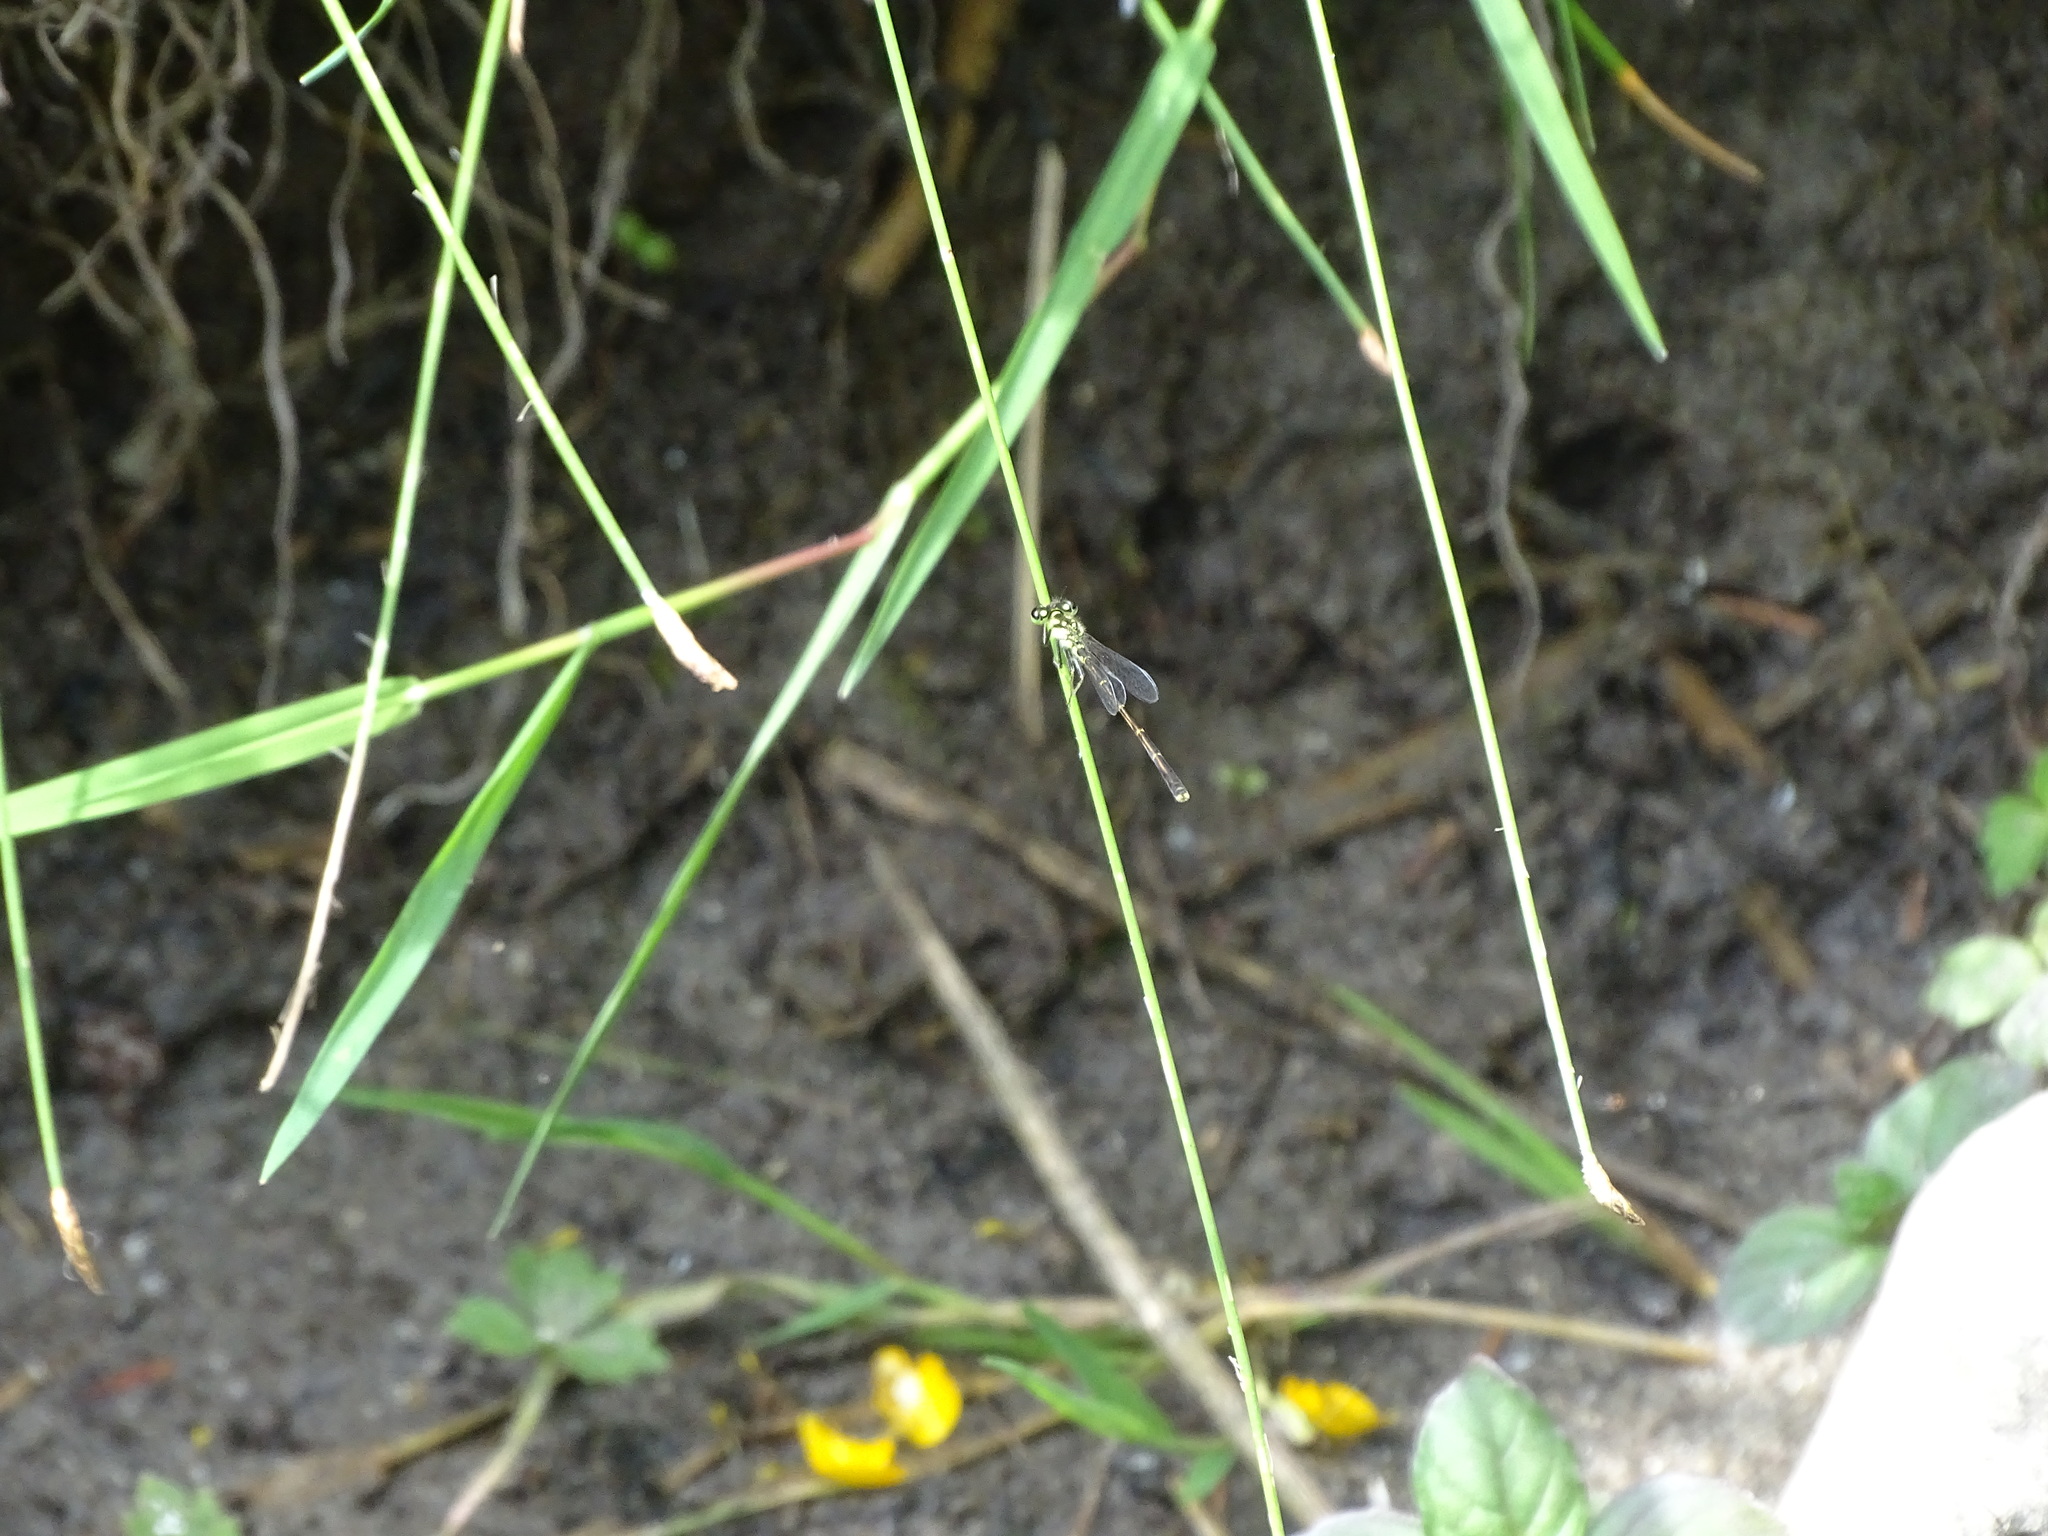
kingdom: Animalia
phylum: Arthropoda
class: Insecta
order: Odonata
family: Coenagrionidae
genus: Ischnura
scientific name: Ischnura posita
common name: Fragile forktail
